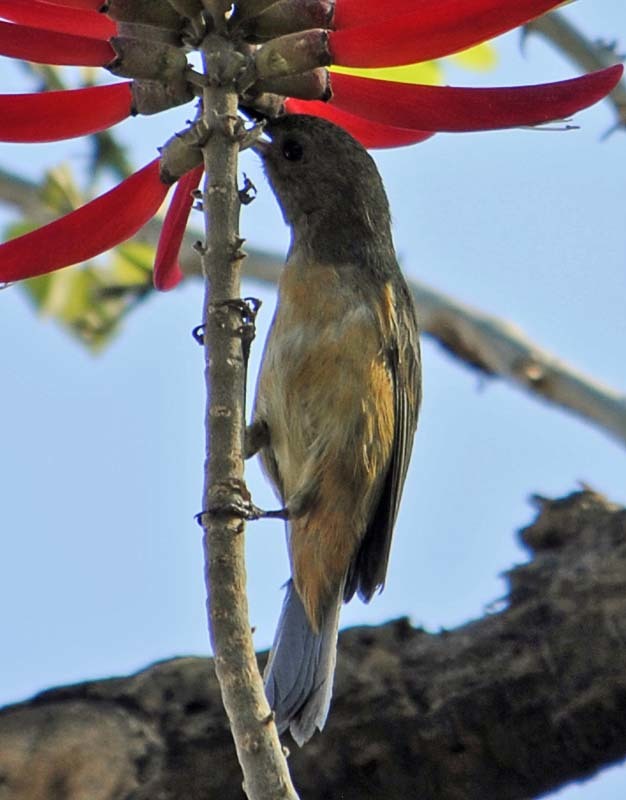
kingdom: Animalia
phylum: Chordata
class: Aves
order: Passeriformes
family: Thraupidae
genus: Diglossa
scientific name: Diglossa baritula
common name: Cinnamon-bellied flowerpiercer
